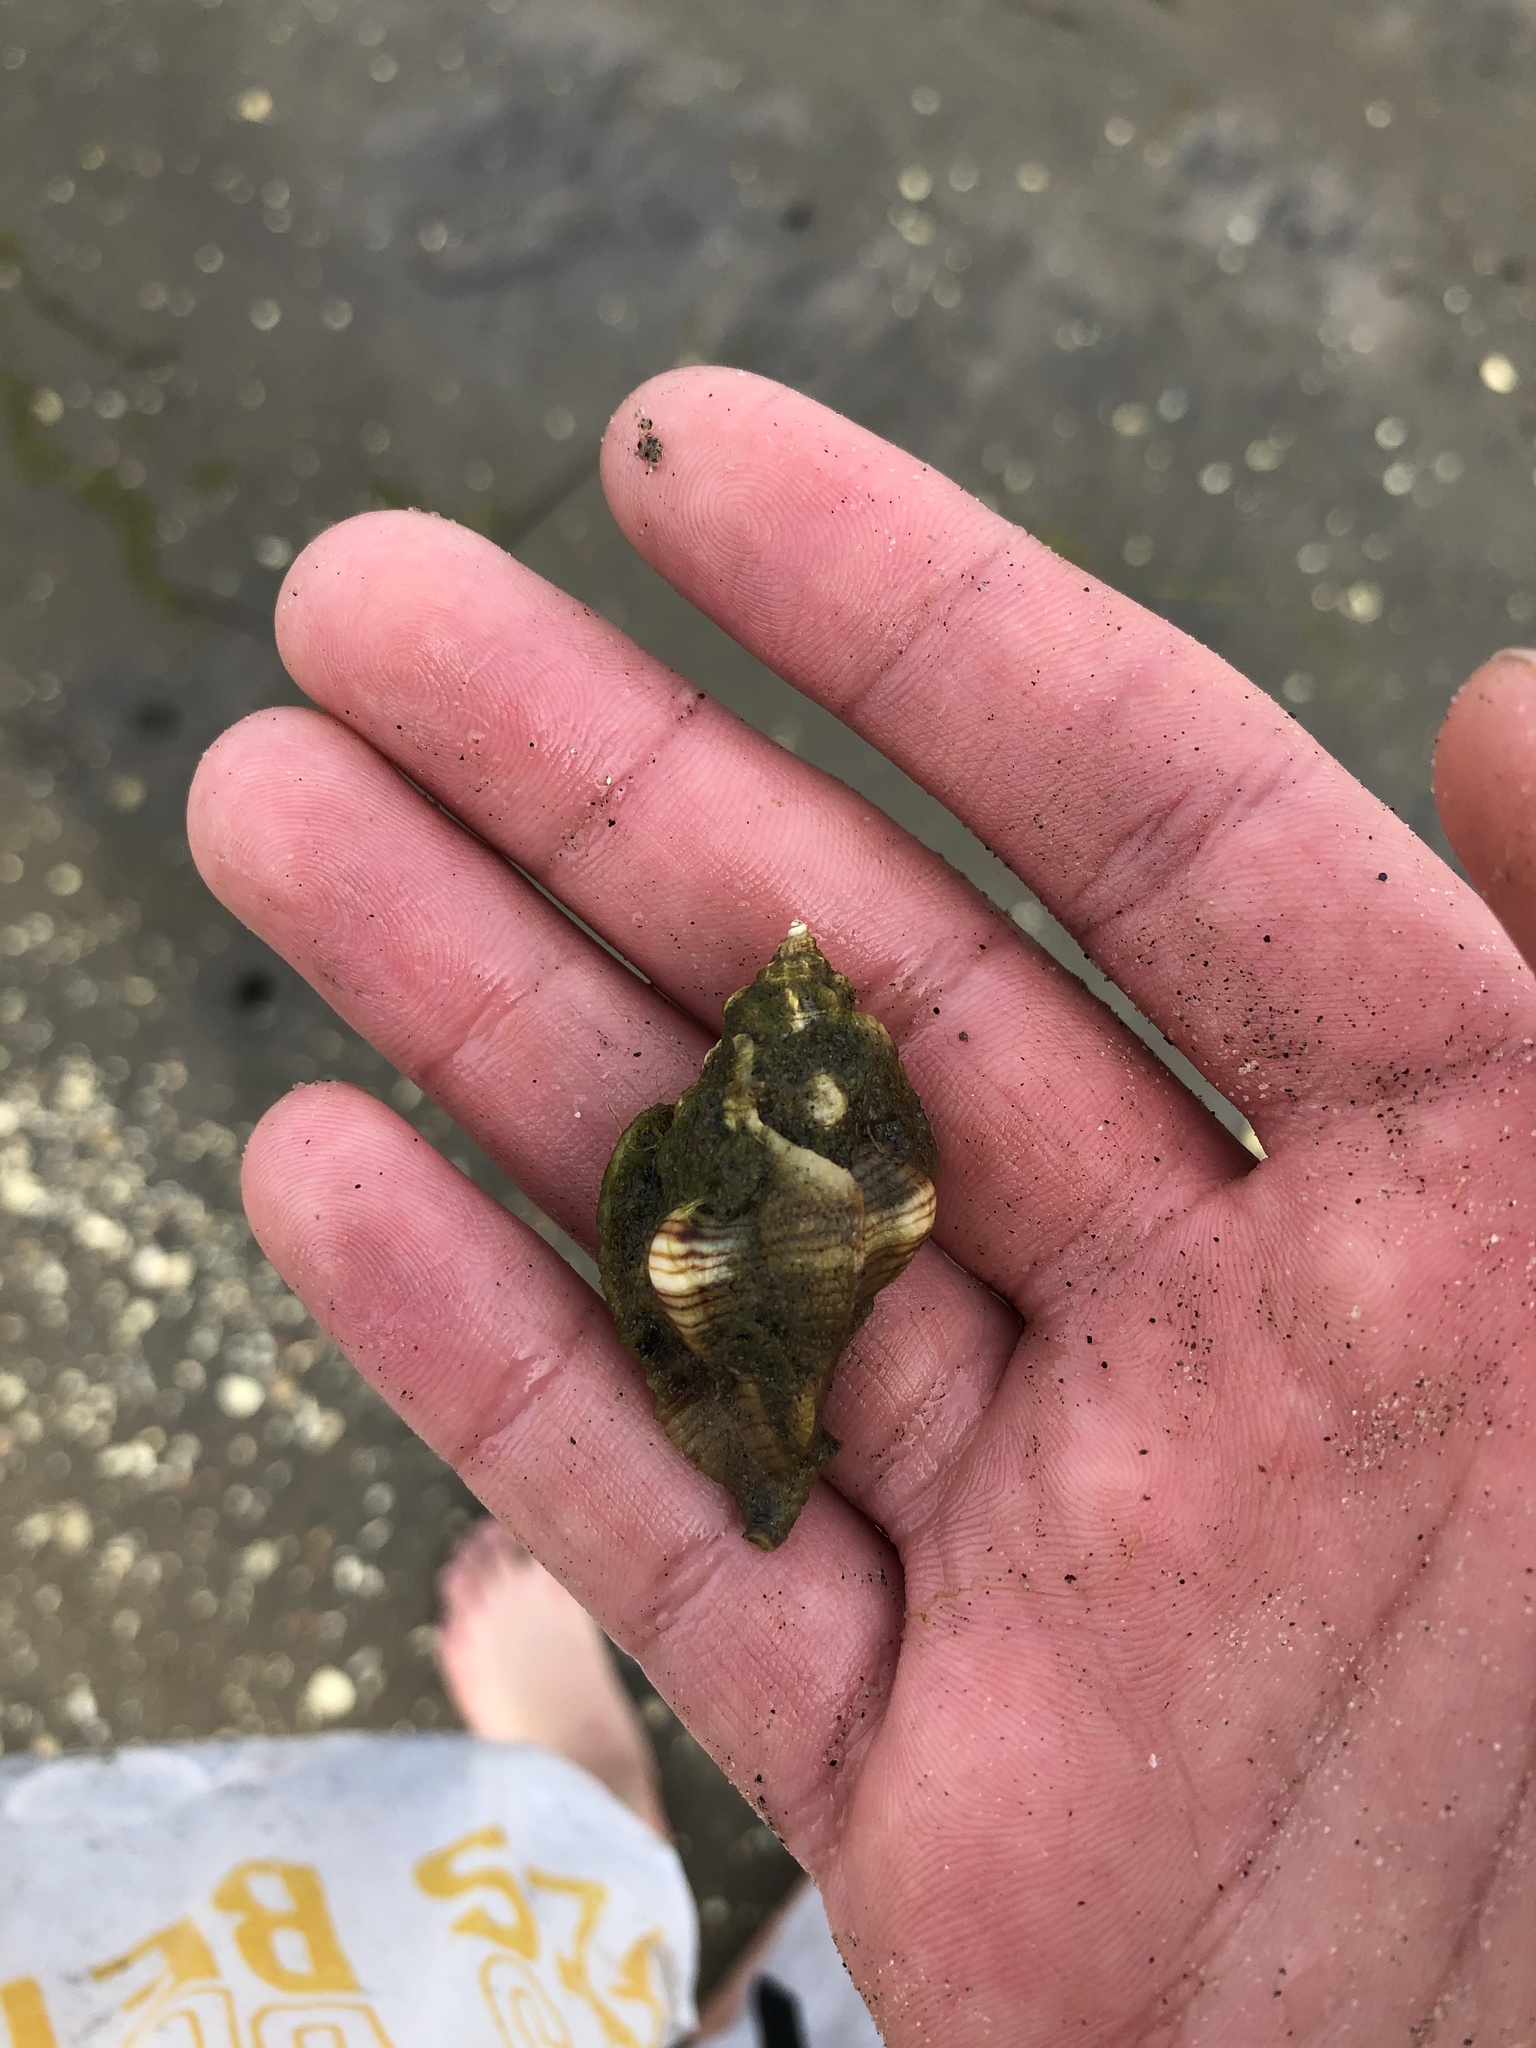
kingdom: Animalia
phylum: Mollusca
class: Gastropoda
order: Neogastropoda
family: Muricidae
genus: Pteropurpura
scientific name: Pteropurpura festiva
